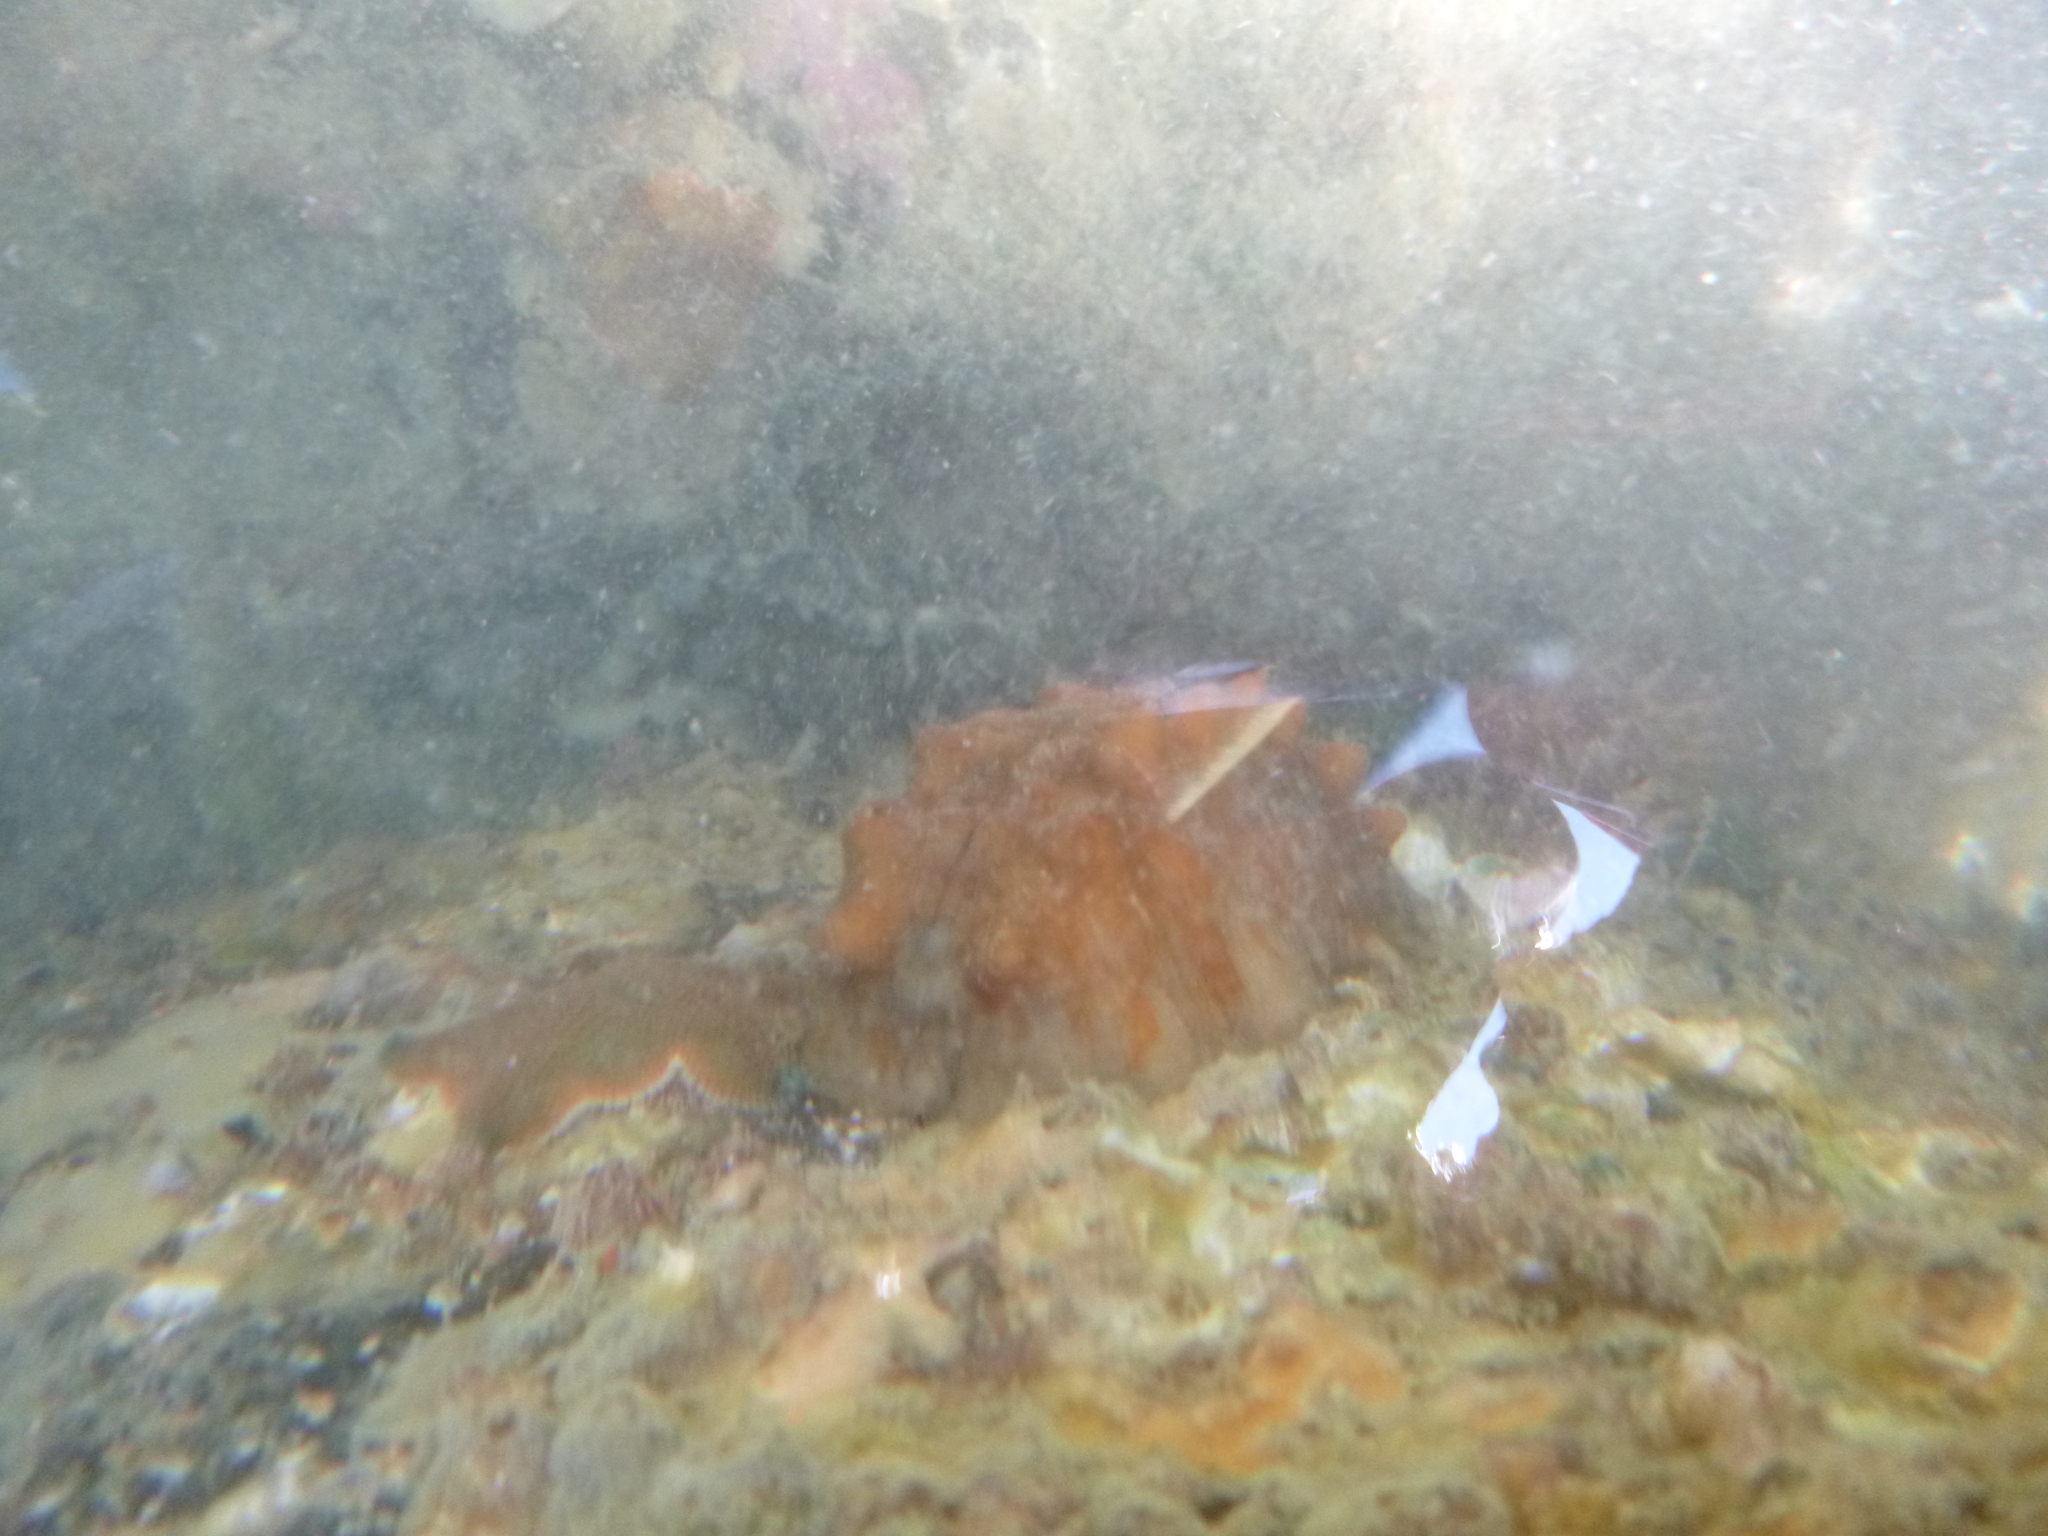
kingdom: Animalia
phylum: Mollusca
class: Polyplacophora
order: Chitonida
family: Acanthochitonidae
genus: Cryptoconchus
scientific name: Cryptoconchus porosus
